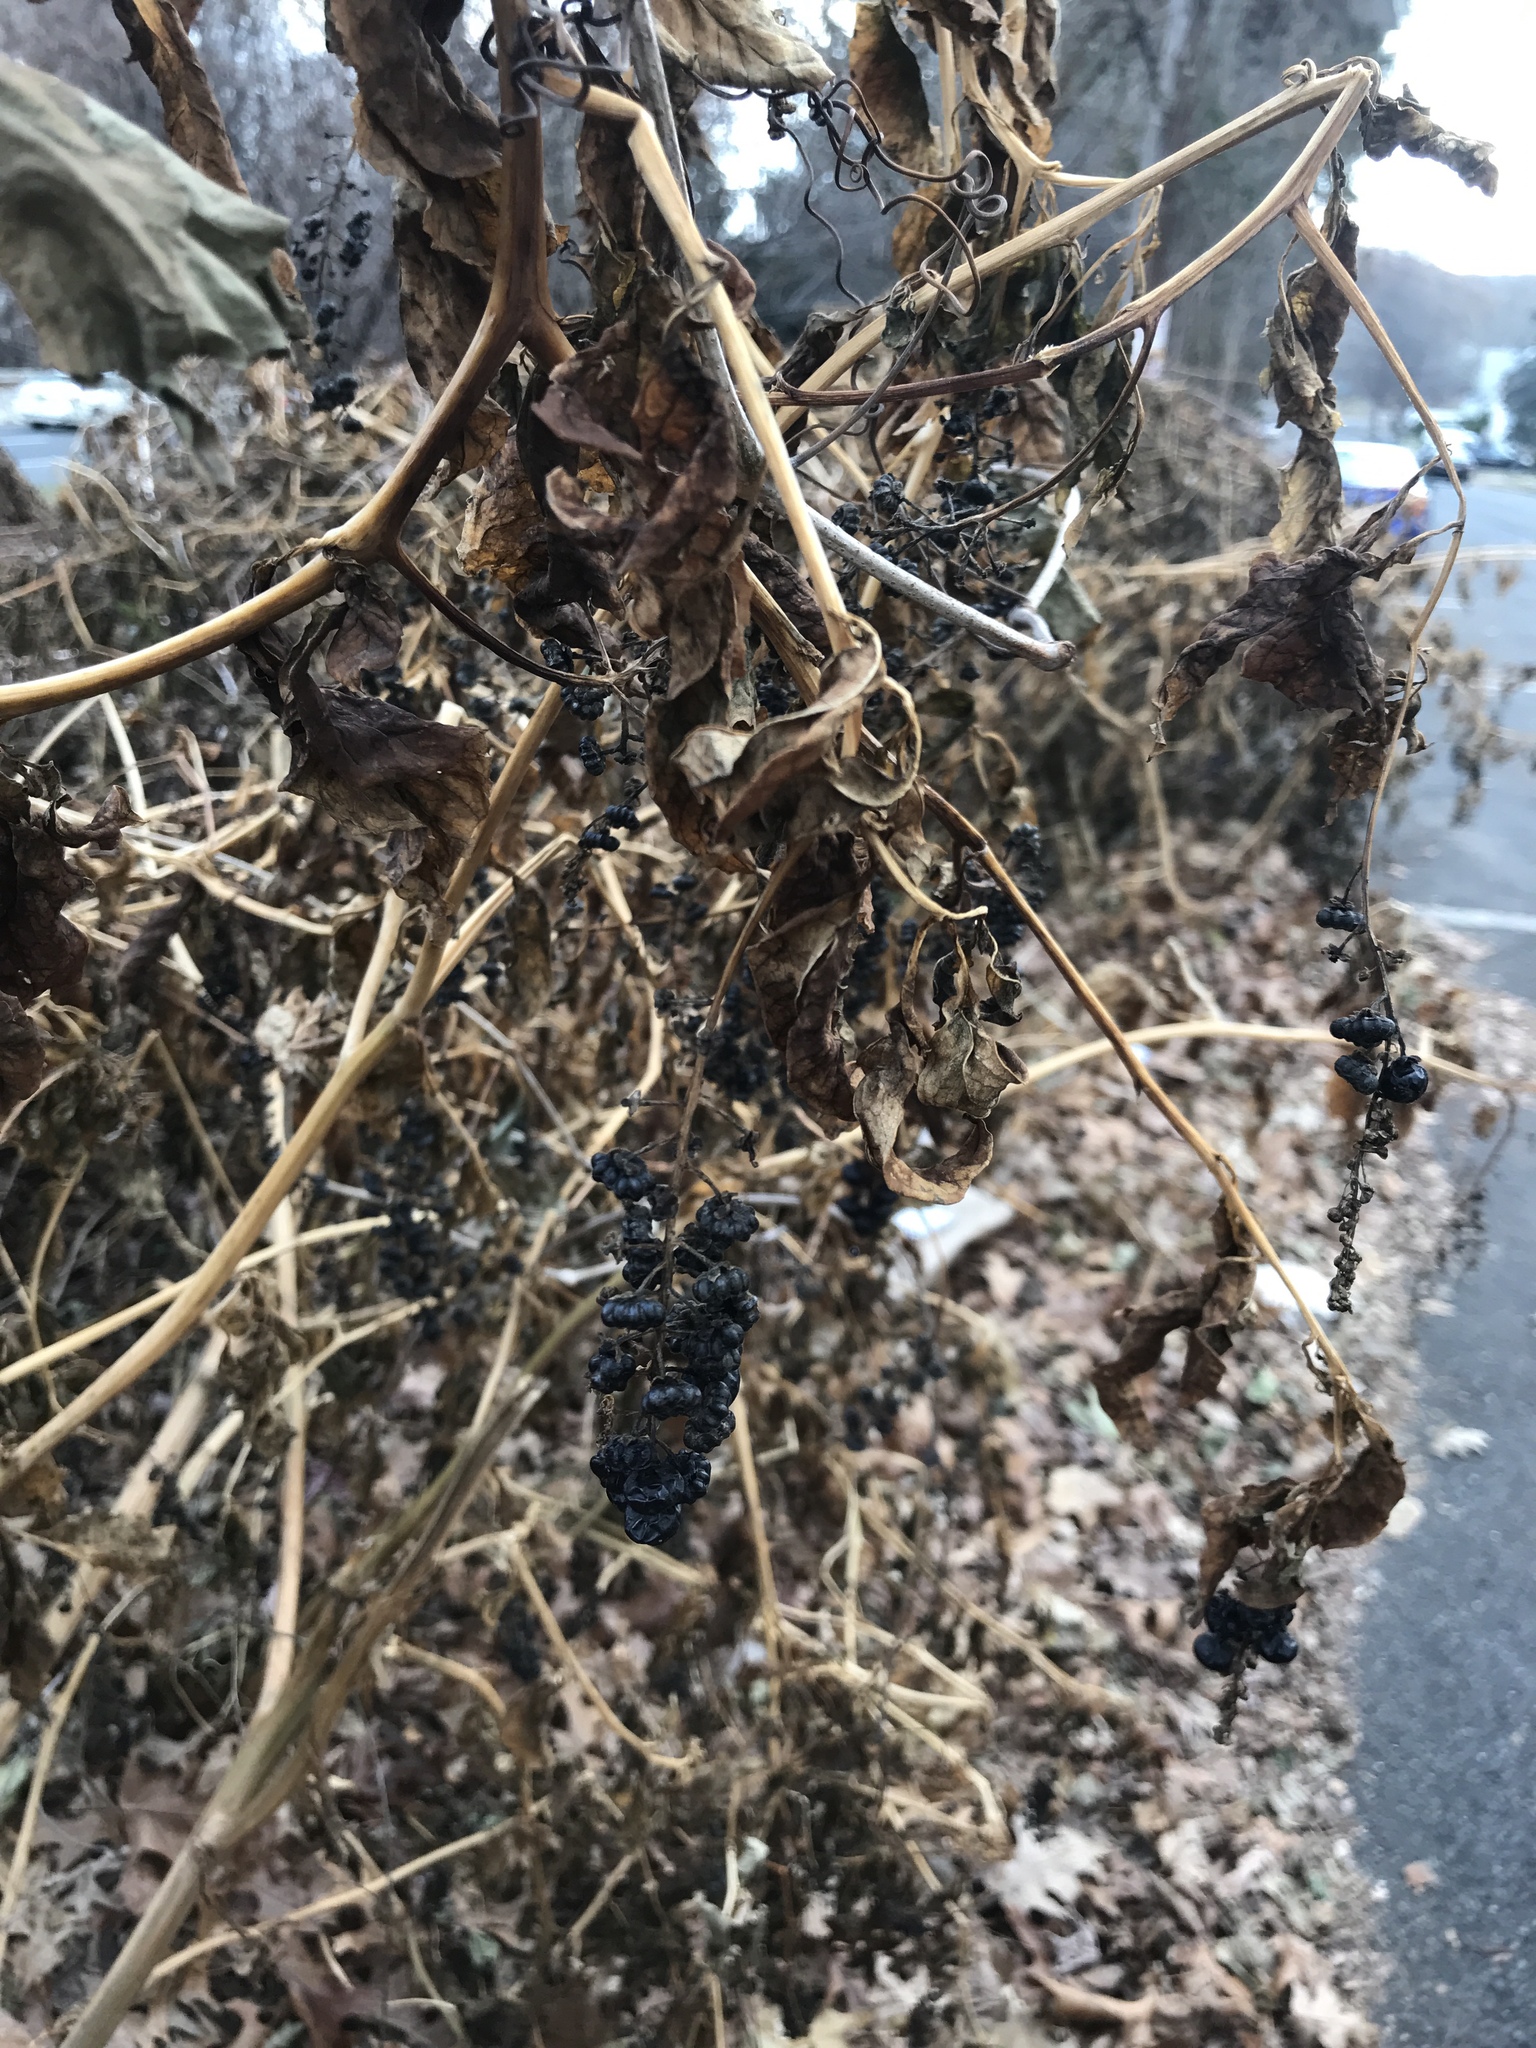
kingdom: Plantae
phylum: Tracheophyta
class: Magnoliopsida
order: Caryophyllales
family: Phytolaccaceae
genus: Phytolacca
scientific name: Phytolacca americana
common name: American pokeweed
